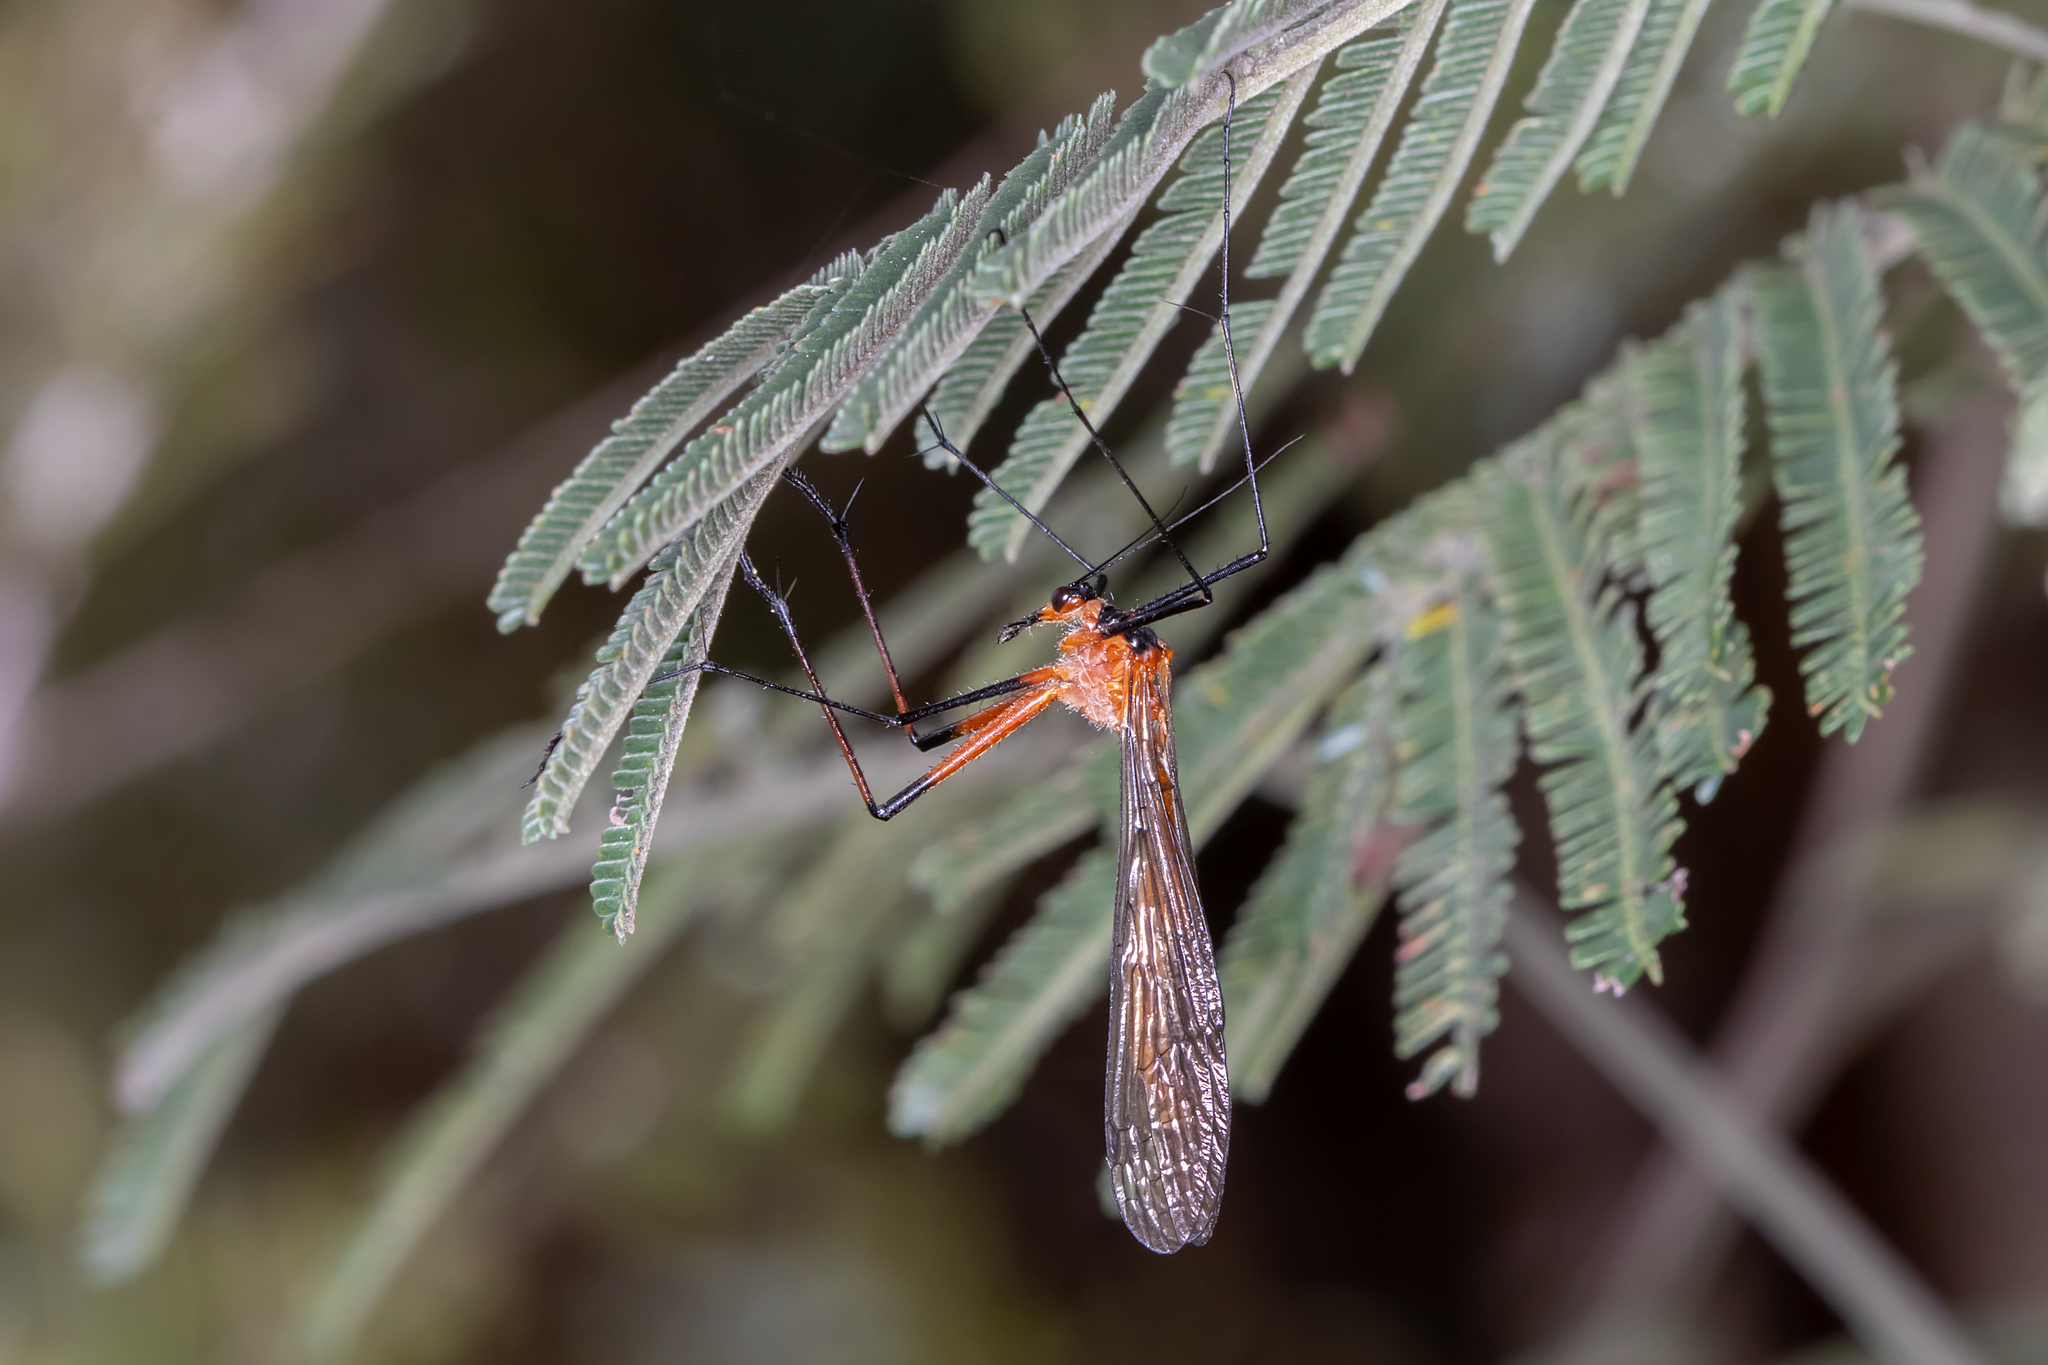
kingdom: Animalia
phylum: Arthropoda
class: Insecta
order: Mecoptera
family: Bittacidae
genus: Harpobittacus
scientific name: Harpobittacus australis
